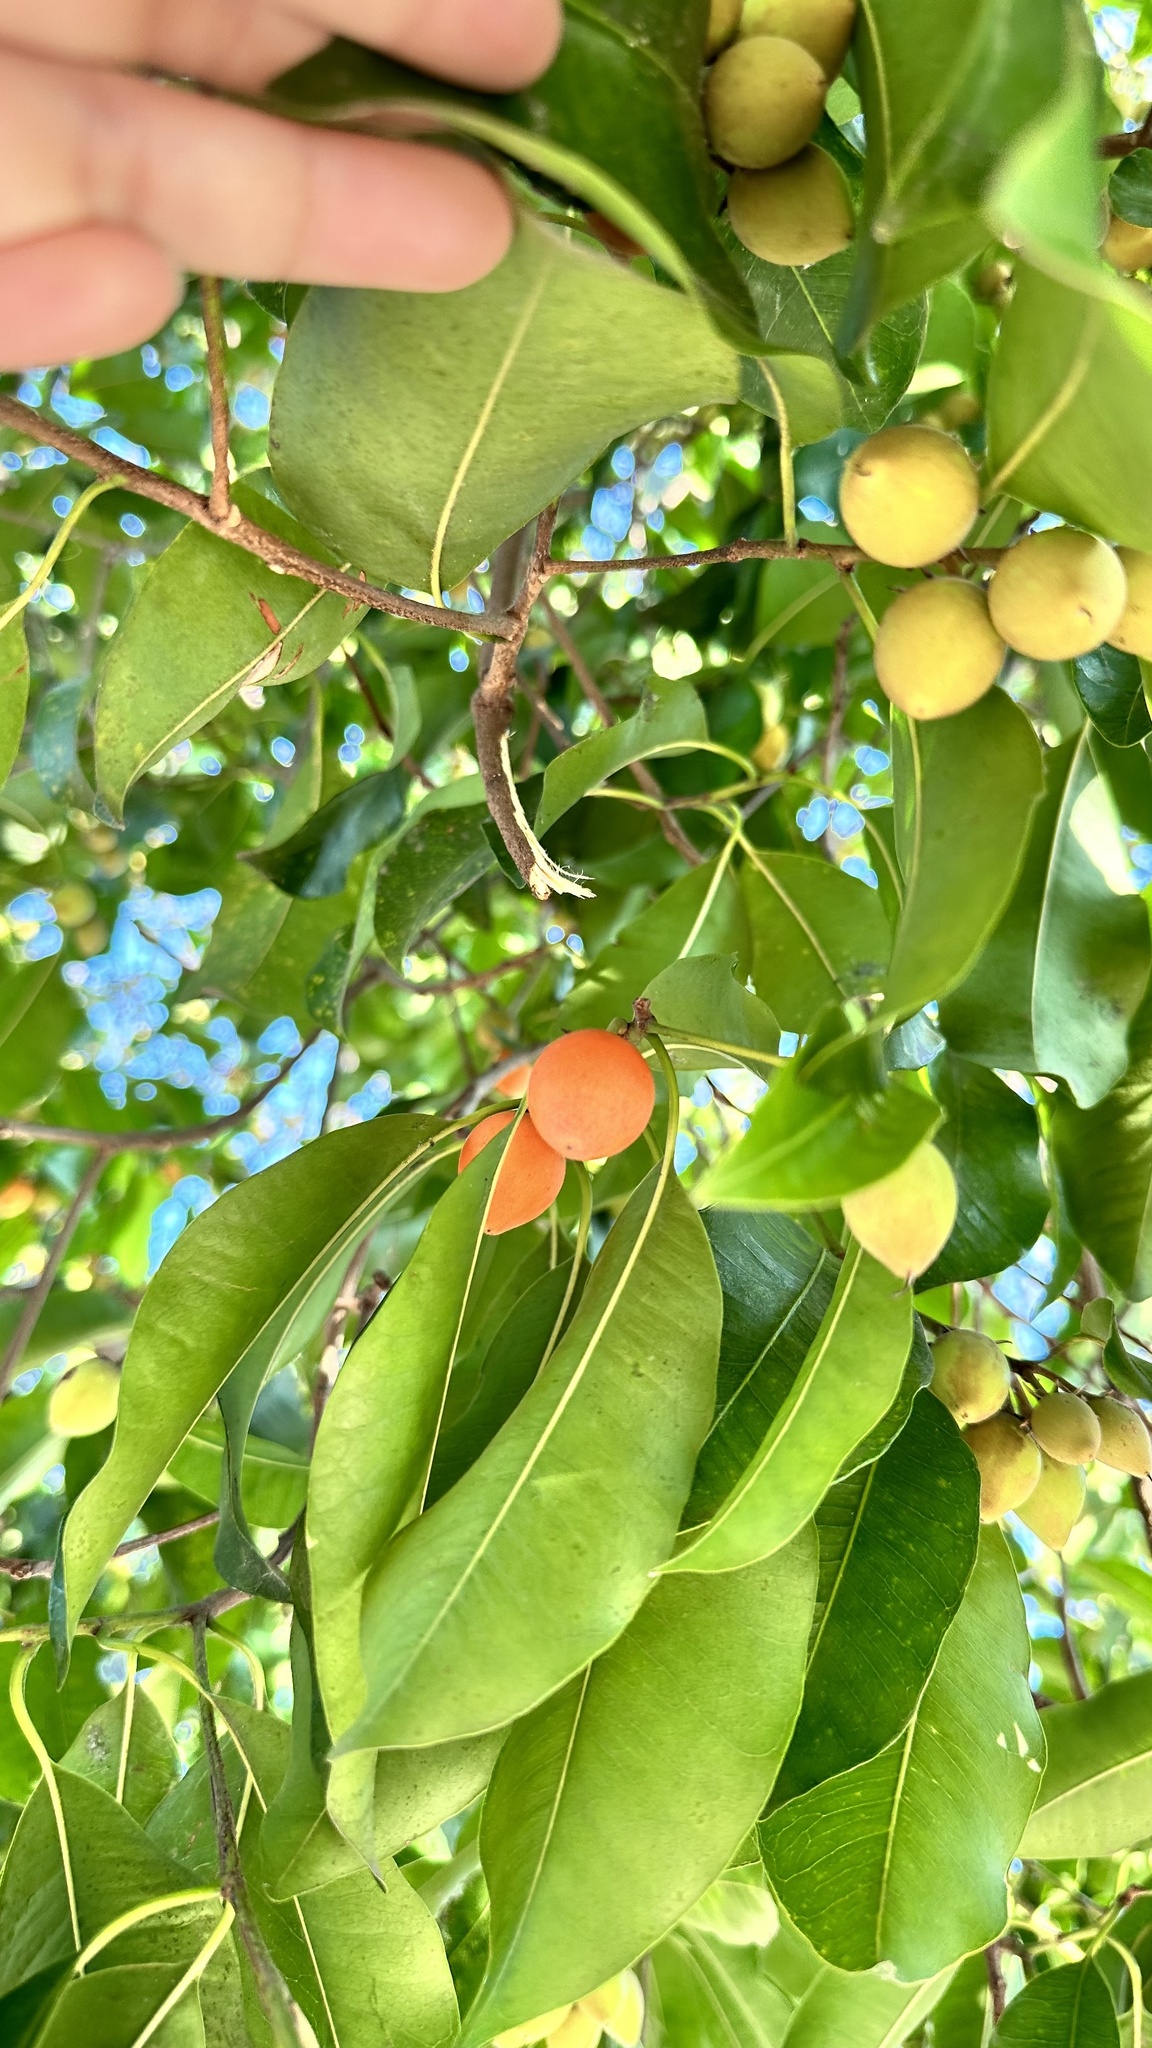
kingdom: Plantae
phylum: Tracheophyta
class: Magnoliopsida
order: Ericales
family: Sapotaceae
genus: Mimusops
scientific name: Mimusops elengi
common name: Spanish cherry
